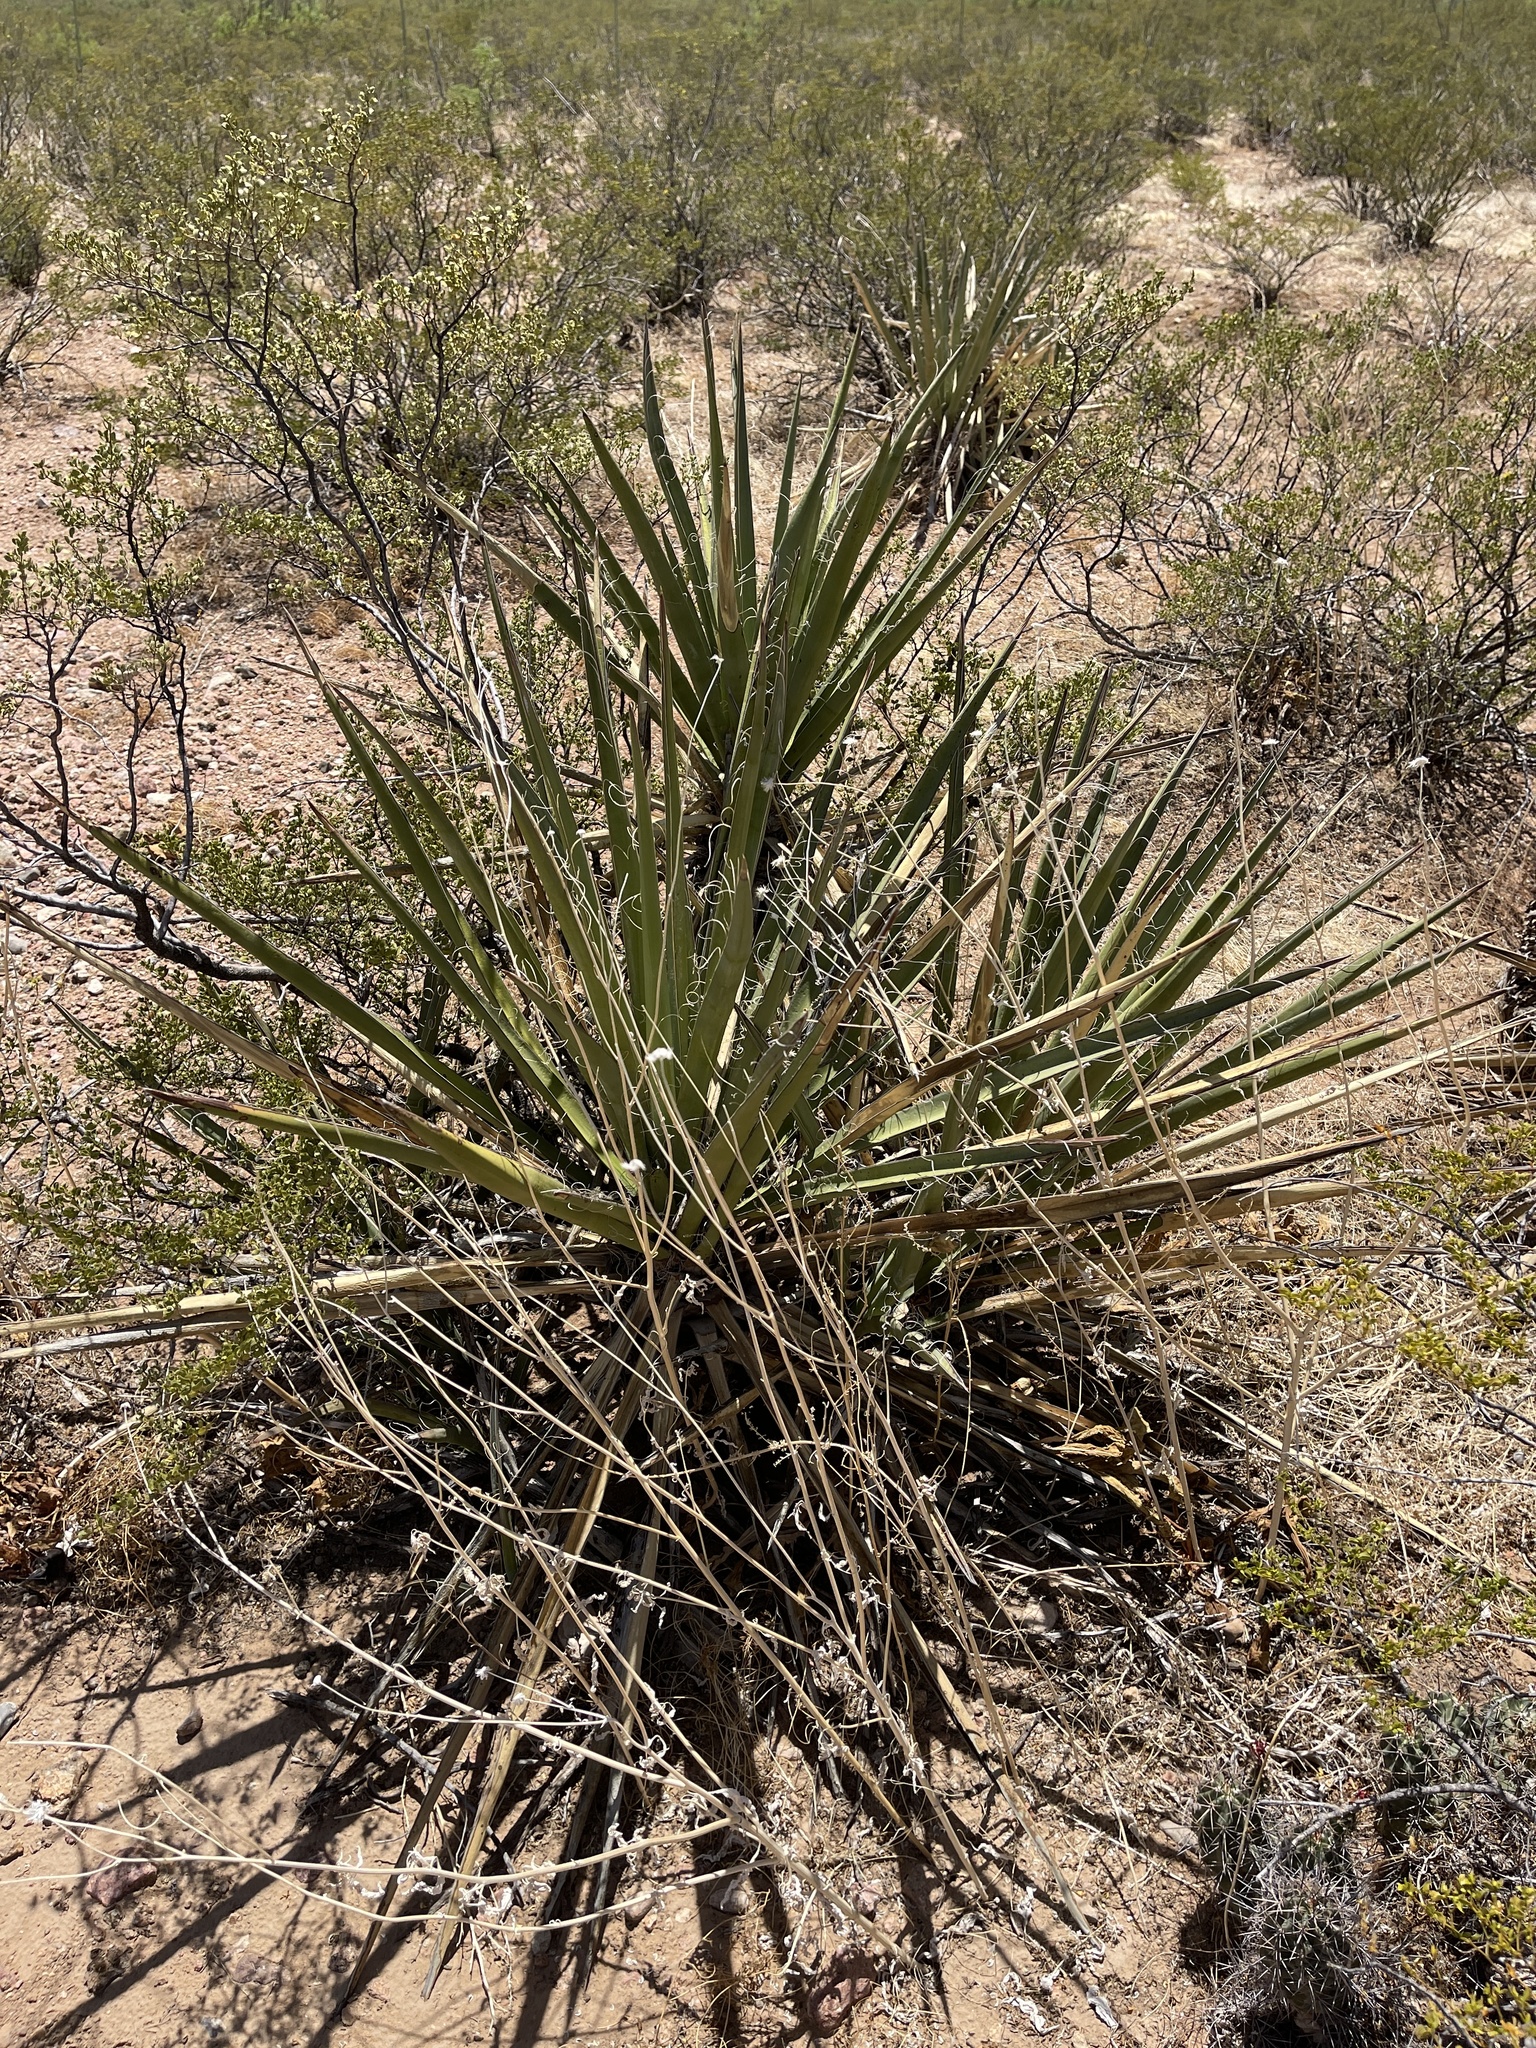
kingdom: Plantae
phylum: Tracheophyta
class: Liliopsida
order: Asparagales
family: Asparagaceae
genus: Yucca
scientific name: Yucca baccata
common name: Banana yucca
